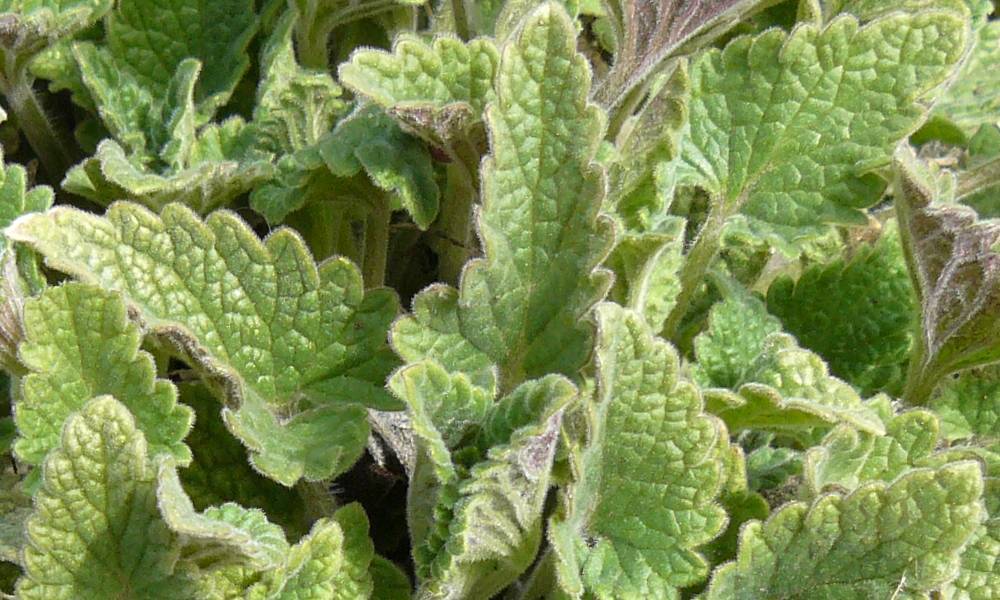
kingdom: Plantae
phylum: Tracheophyta
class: Magnoliopsida
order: Lamiales
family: Lamiaceae
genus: Nepeta
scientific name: Nepeta cataria
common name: Catnip
